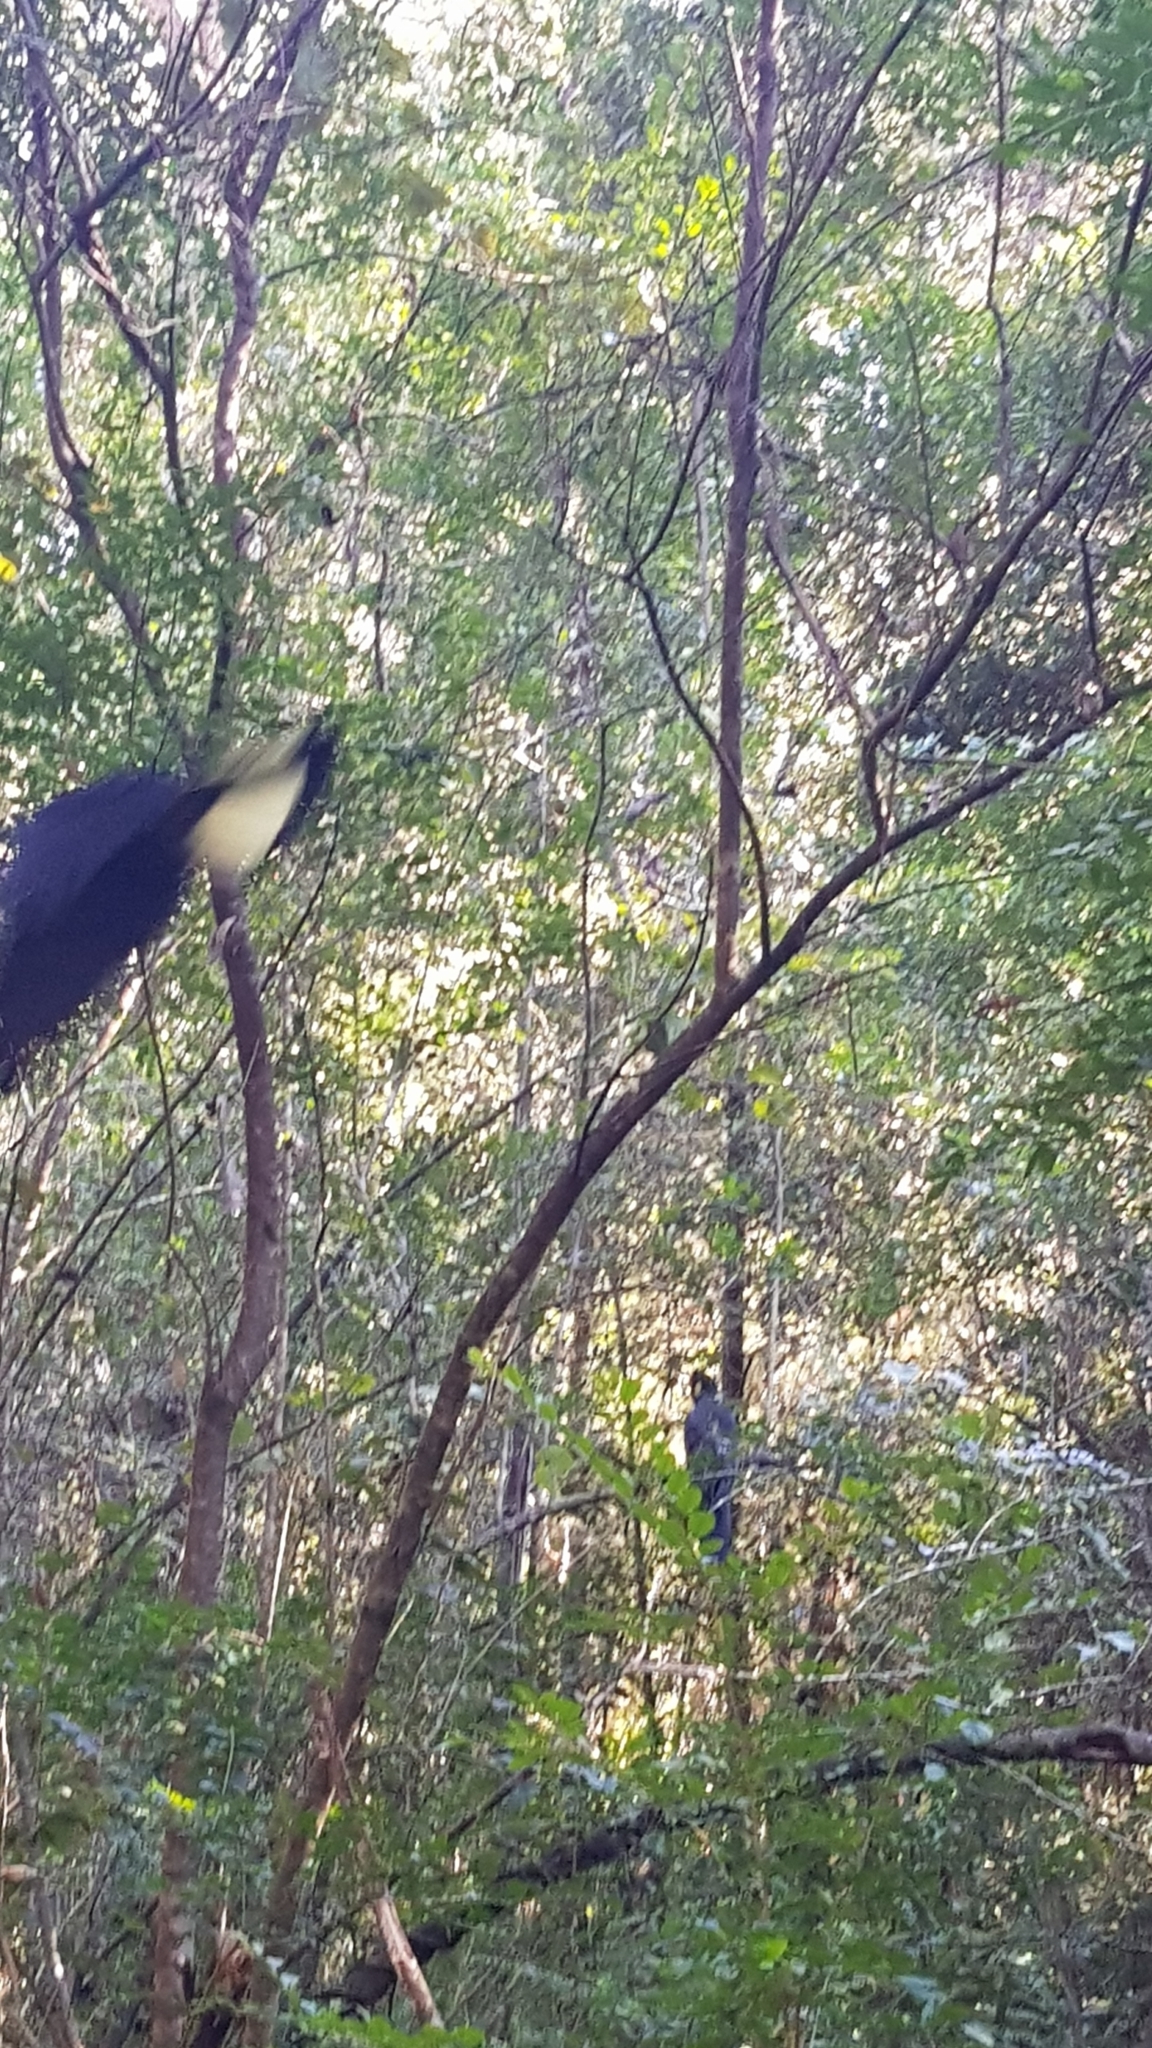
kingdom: Animalia
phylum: Chordata
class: Aves
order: Psittaciformes
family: Cacatuidae
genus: Zanda
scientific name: Zanda funerea
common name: Yellow-tailed black-cockatoo
